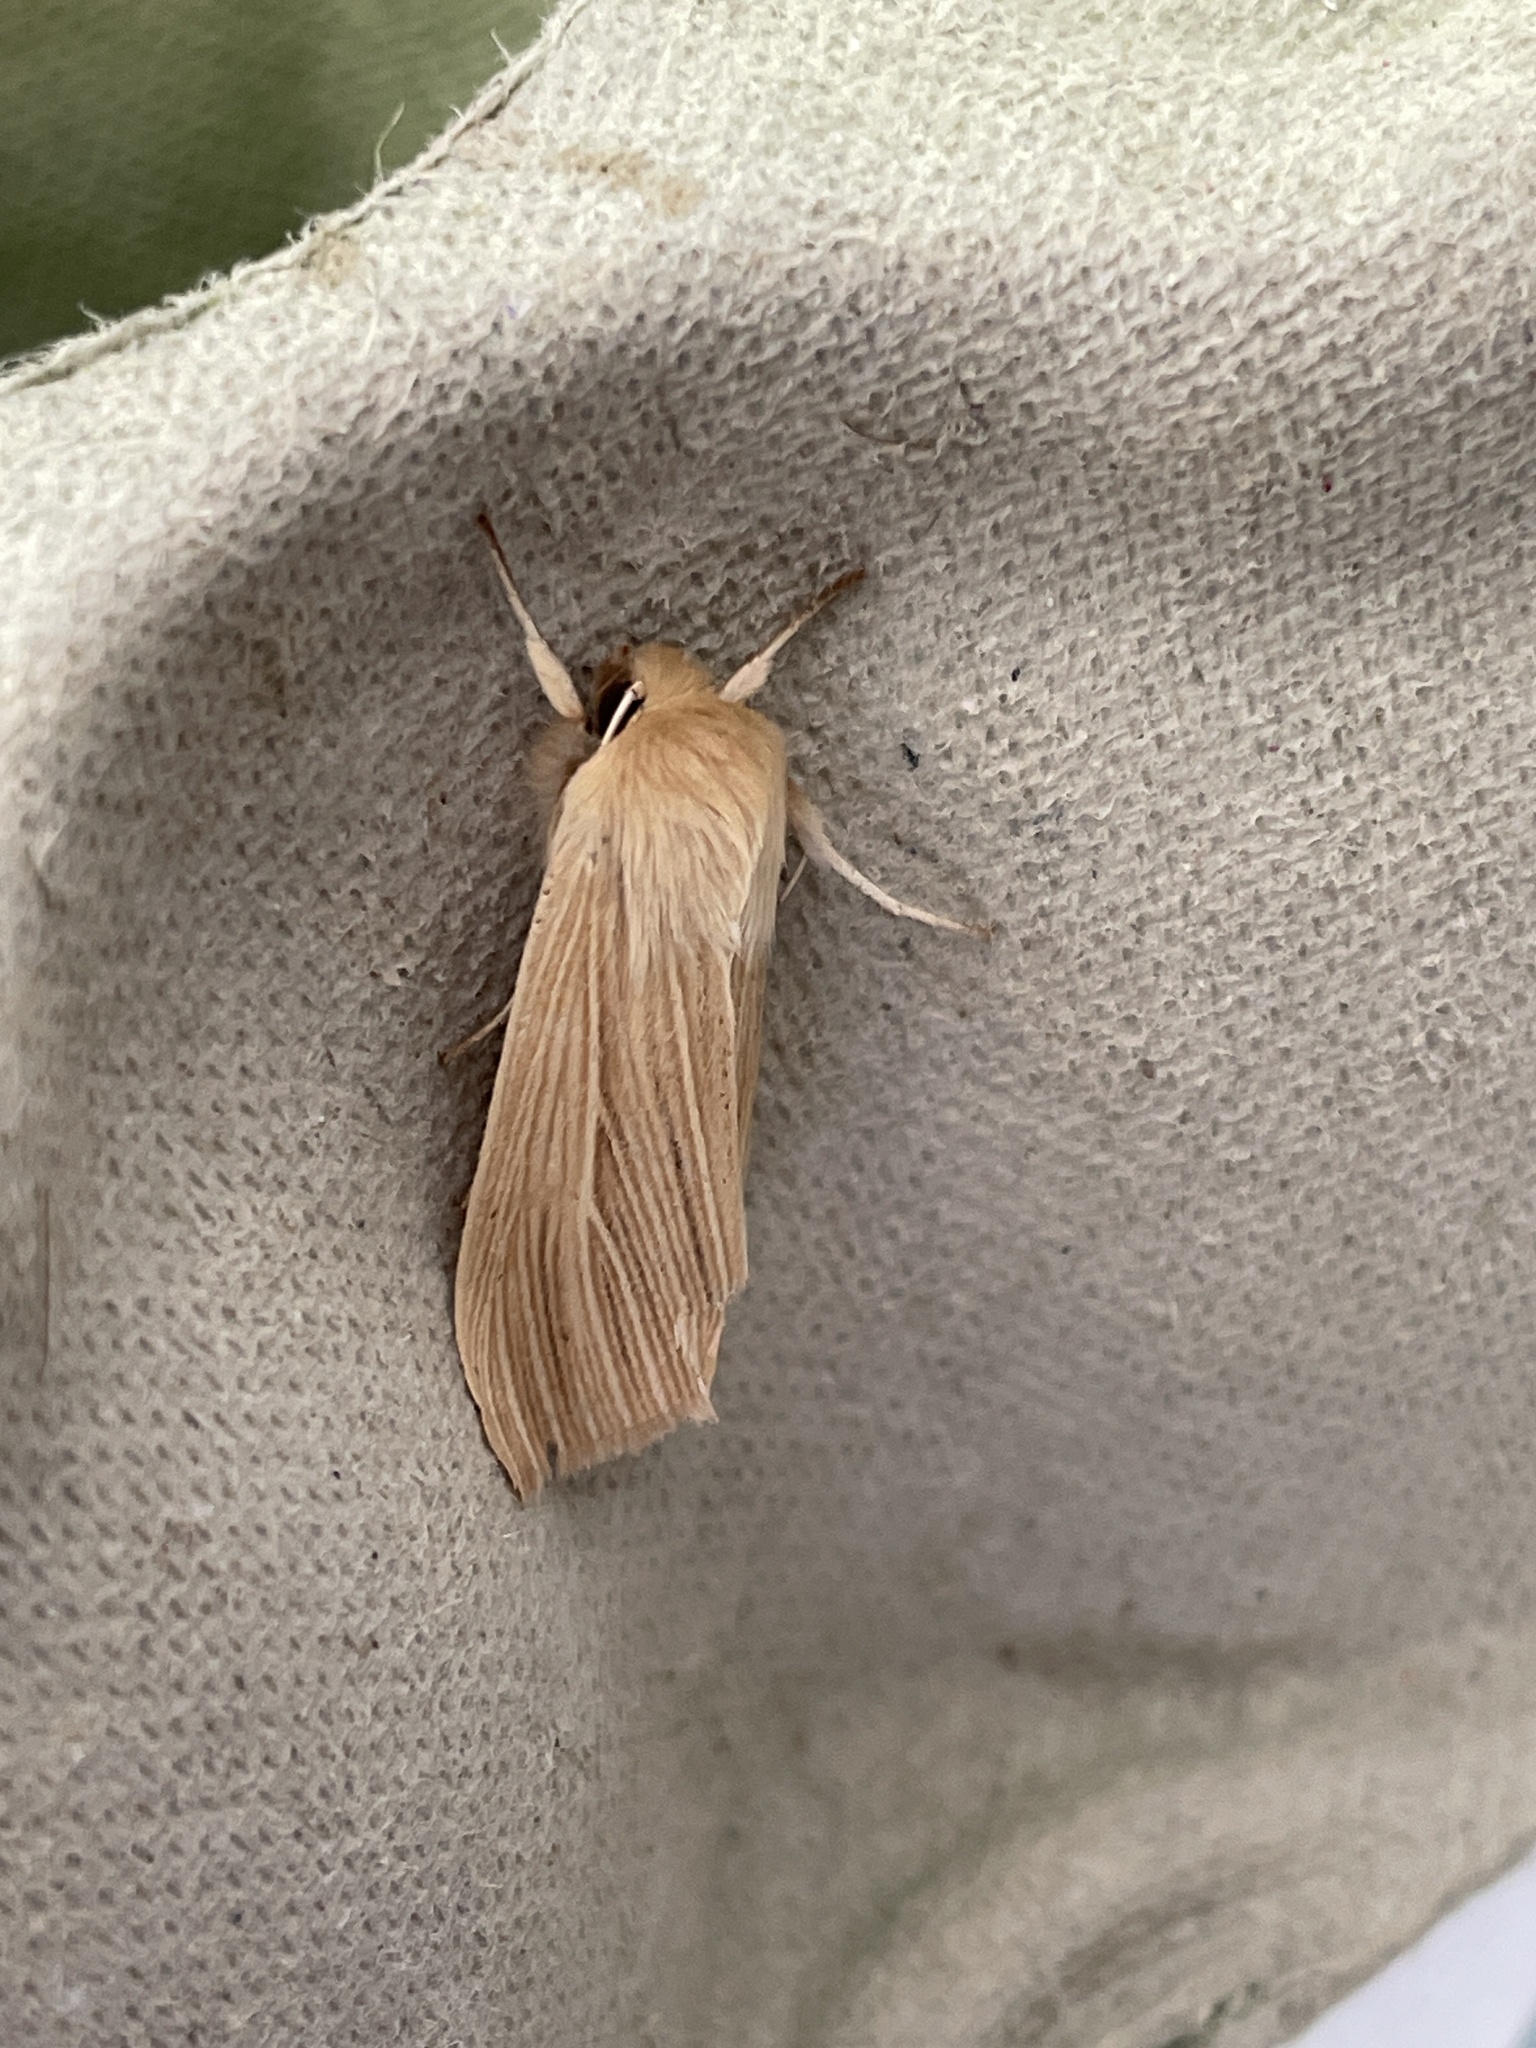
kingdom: Animalia
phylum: Arthropoda
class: Insecta
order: Lepidoptera
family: Noctuidae
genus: Mythimna
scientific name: Mythimna pallens
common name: Common wainscot
